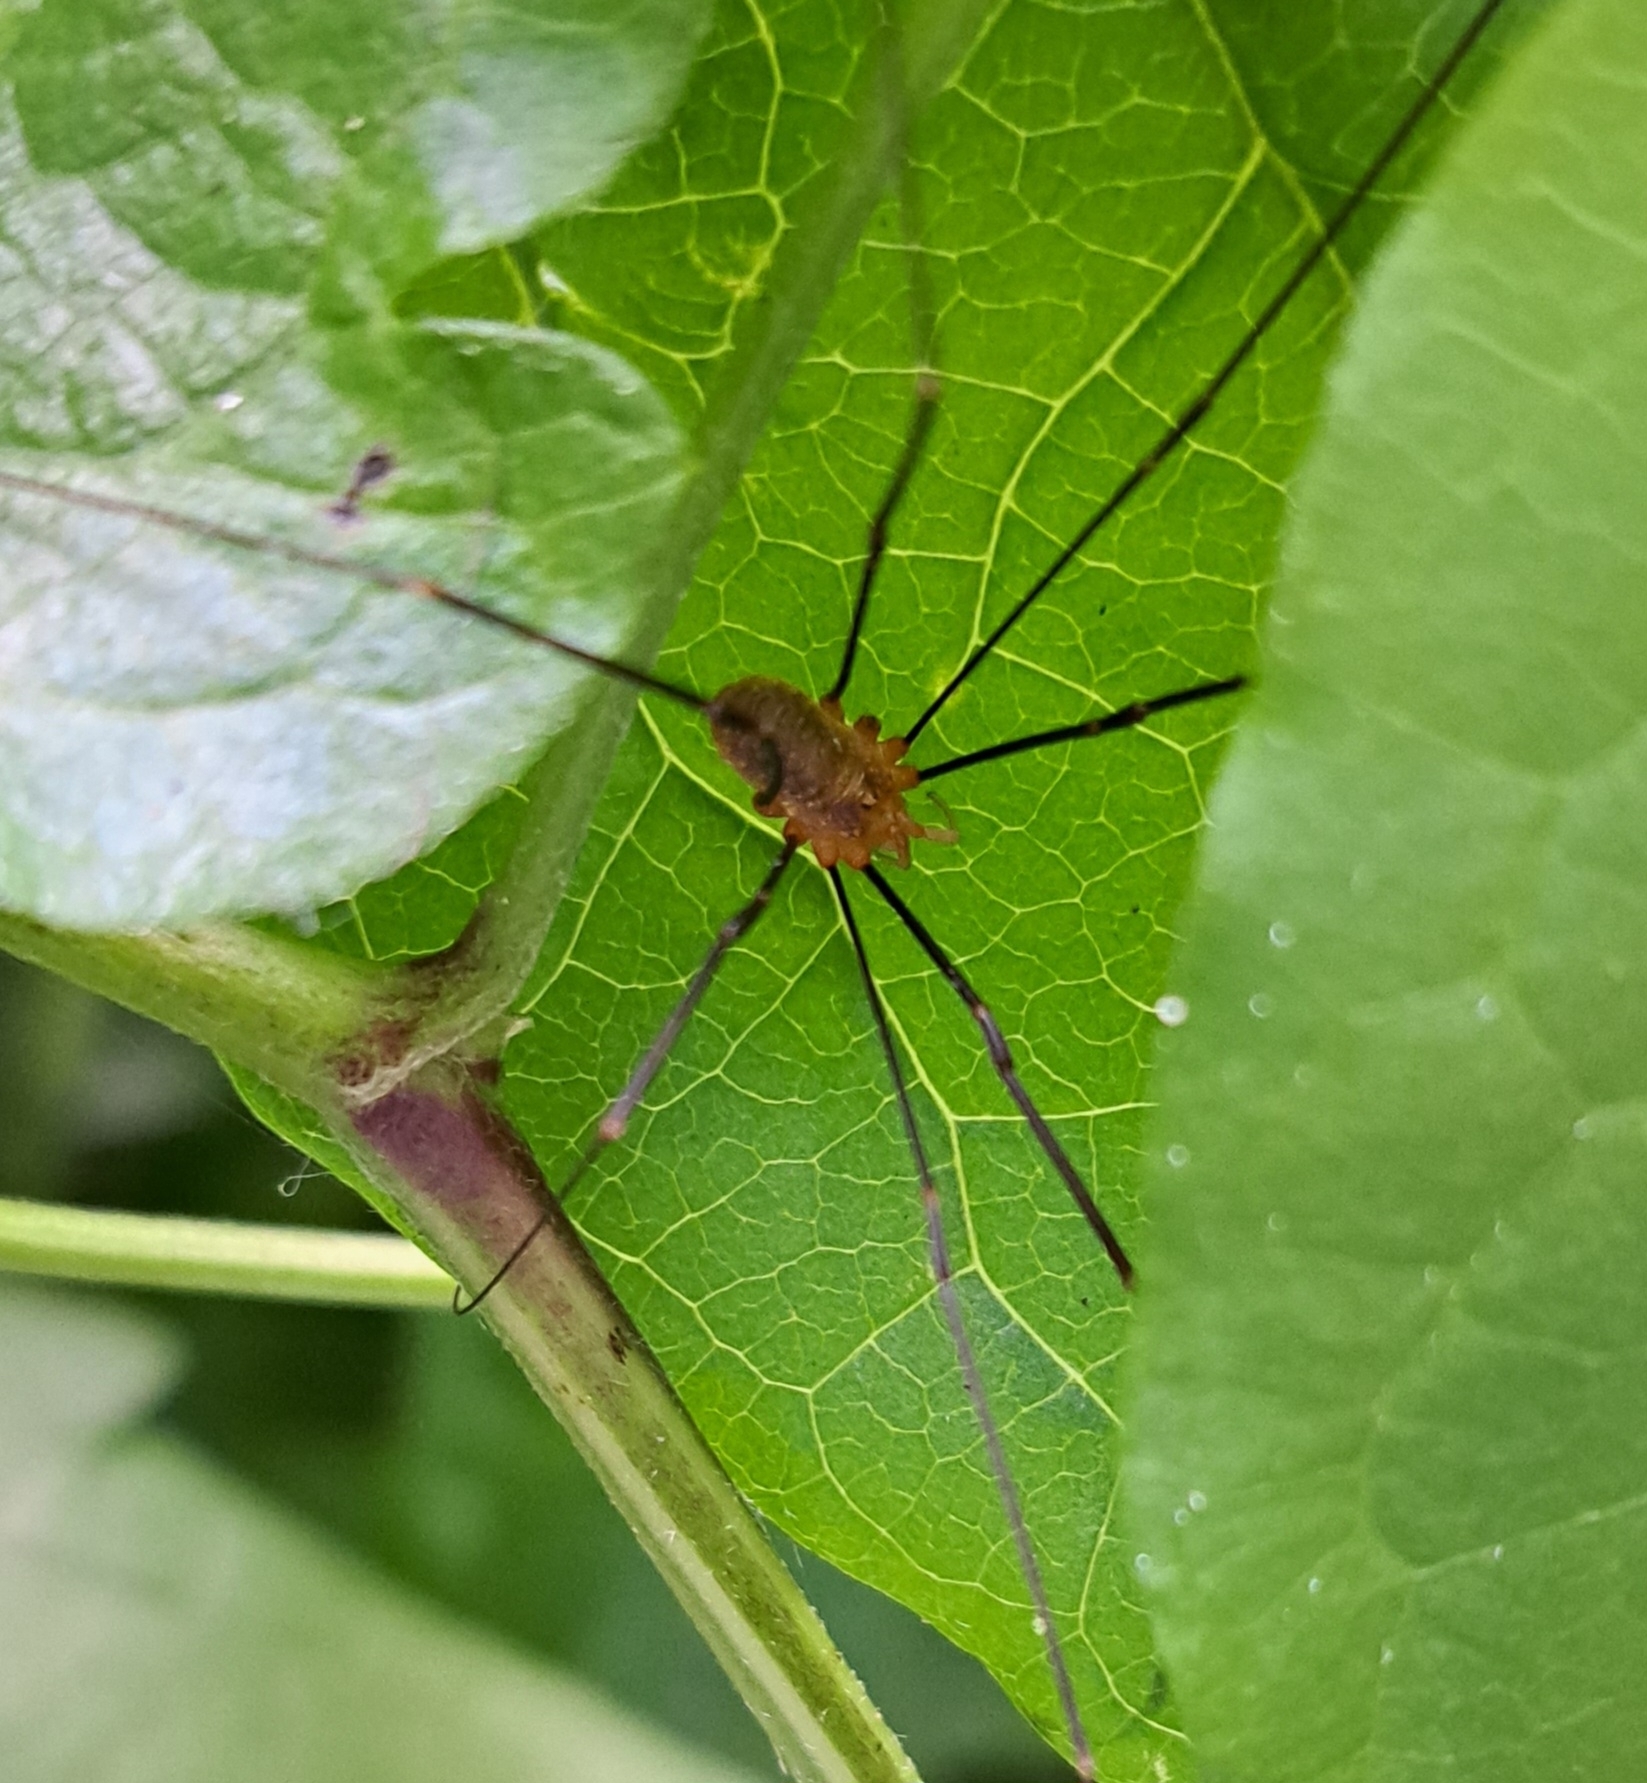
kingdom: Animalia
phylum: Arthropoda
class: Arachnida
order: Opiliones
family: Phalangiidae
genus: Opilio
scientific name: Opilio canestrinii
